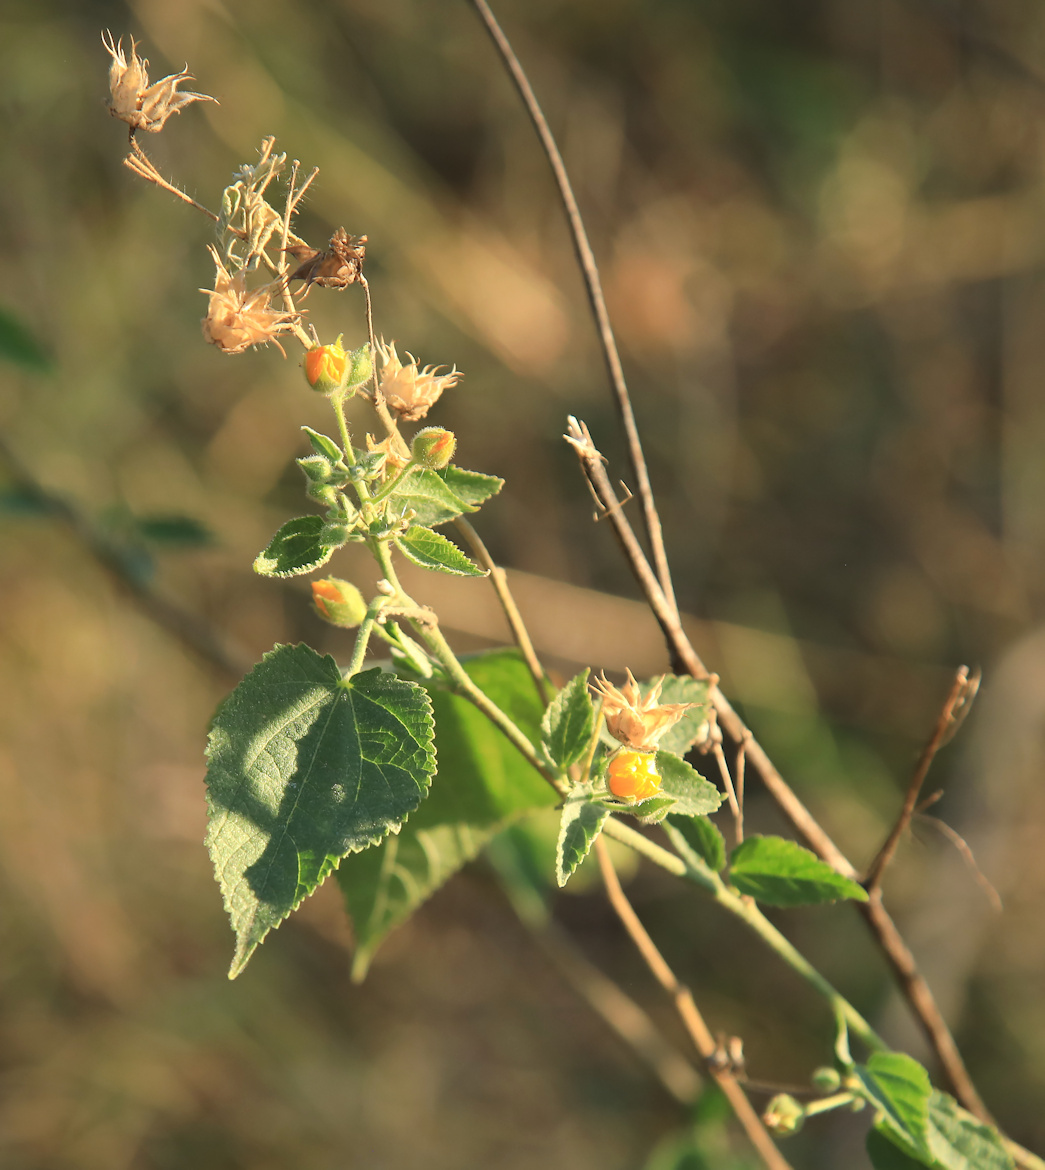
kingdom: Plantae
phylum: Tracheophyta
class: Magnoliopsida
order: Malvales
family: Malvaceae
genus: Abutilon
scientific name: Abutilon ramosum
